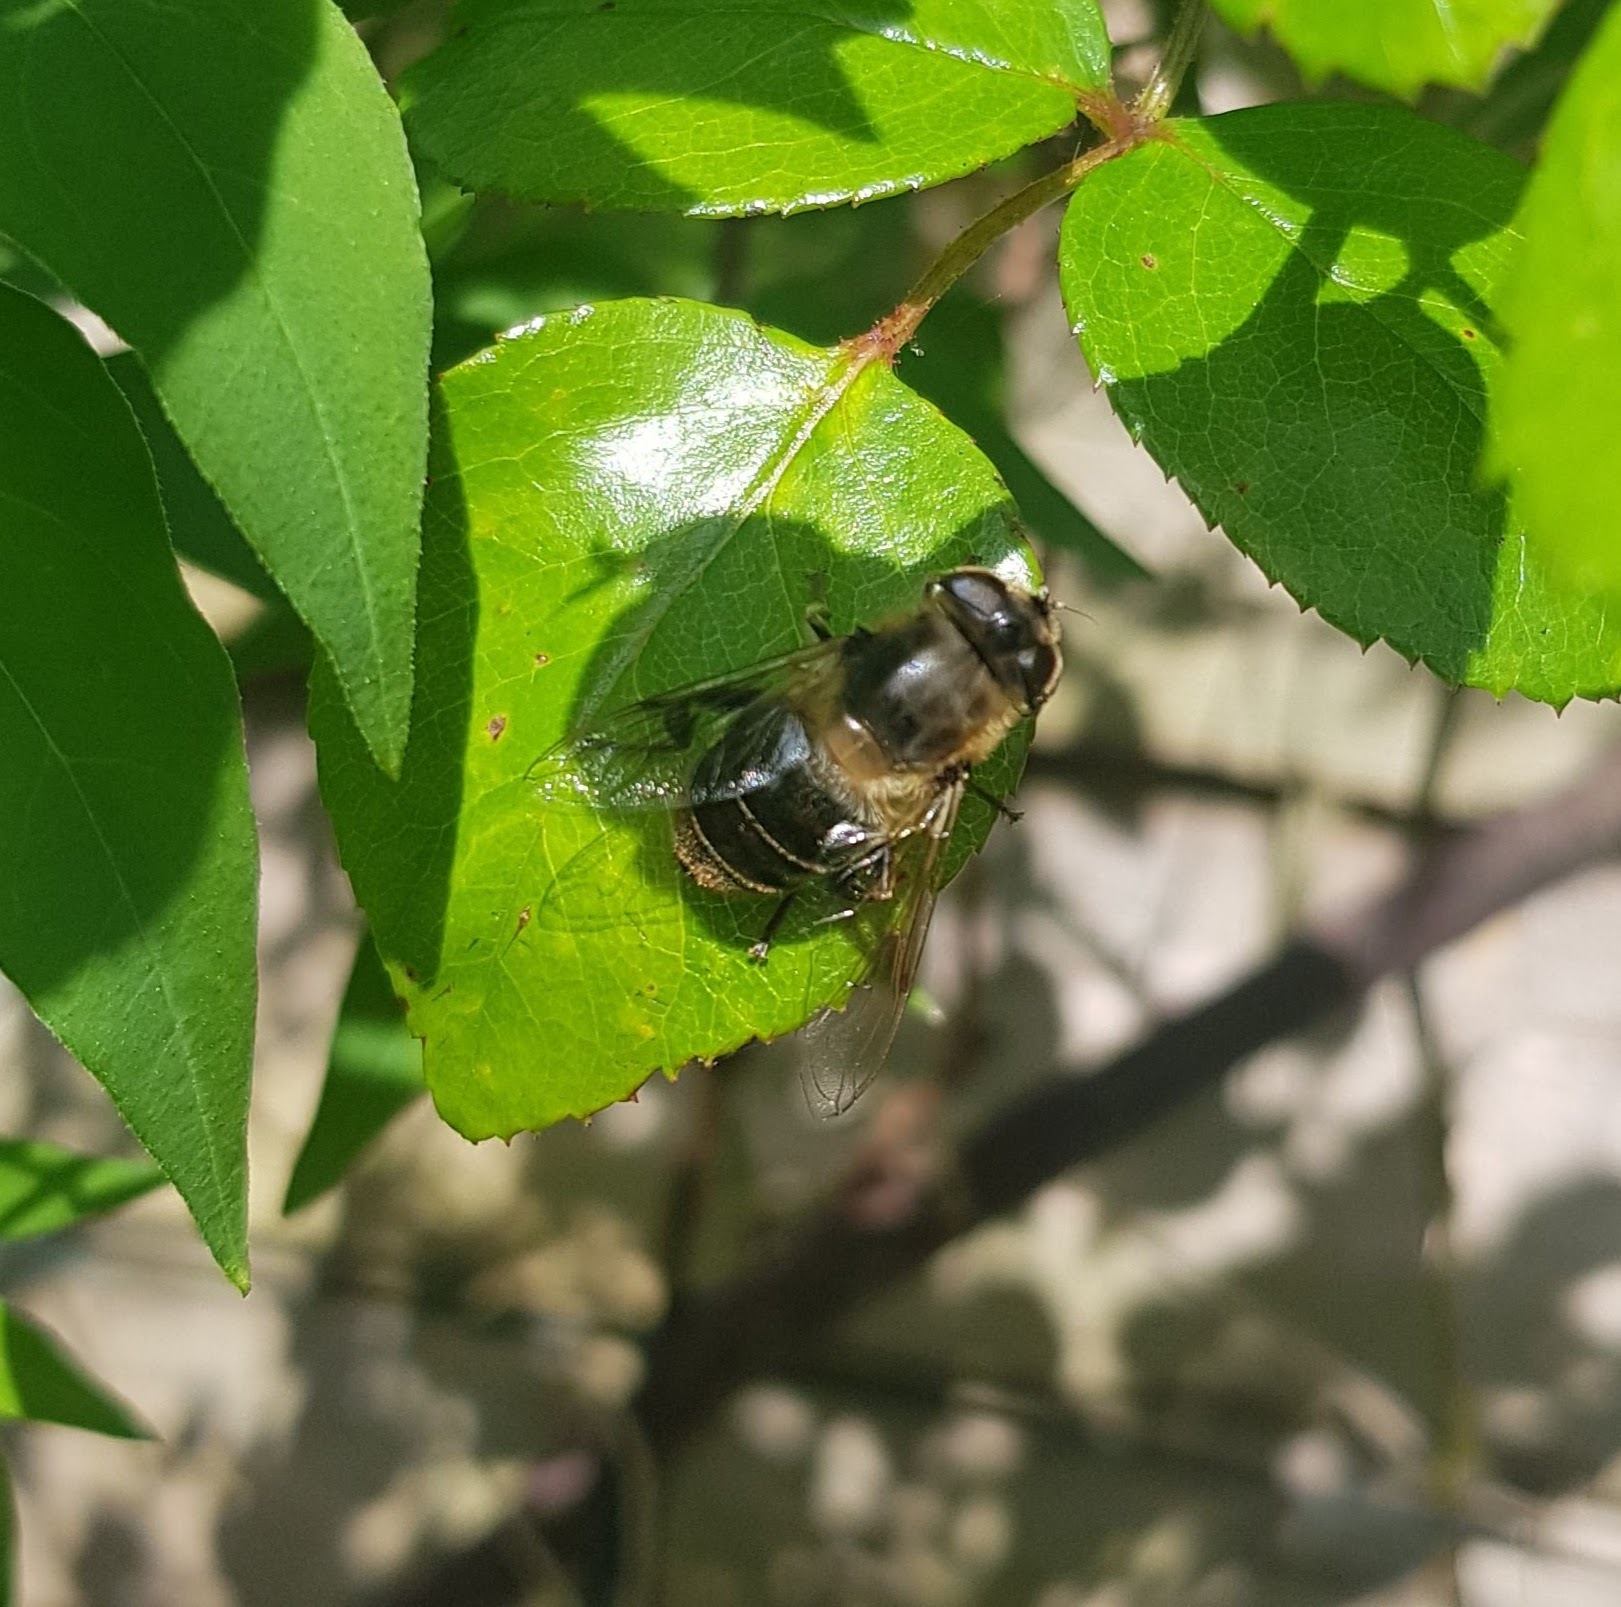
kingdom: Animalia
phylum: Arthropoda
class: Insecta
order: Diptera
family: Syrphidae
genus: Eristalis
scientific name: Eristalis tenax
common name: Drone fly
